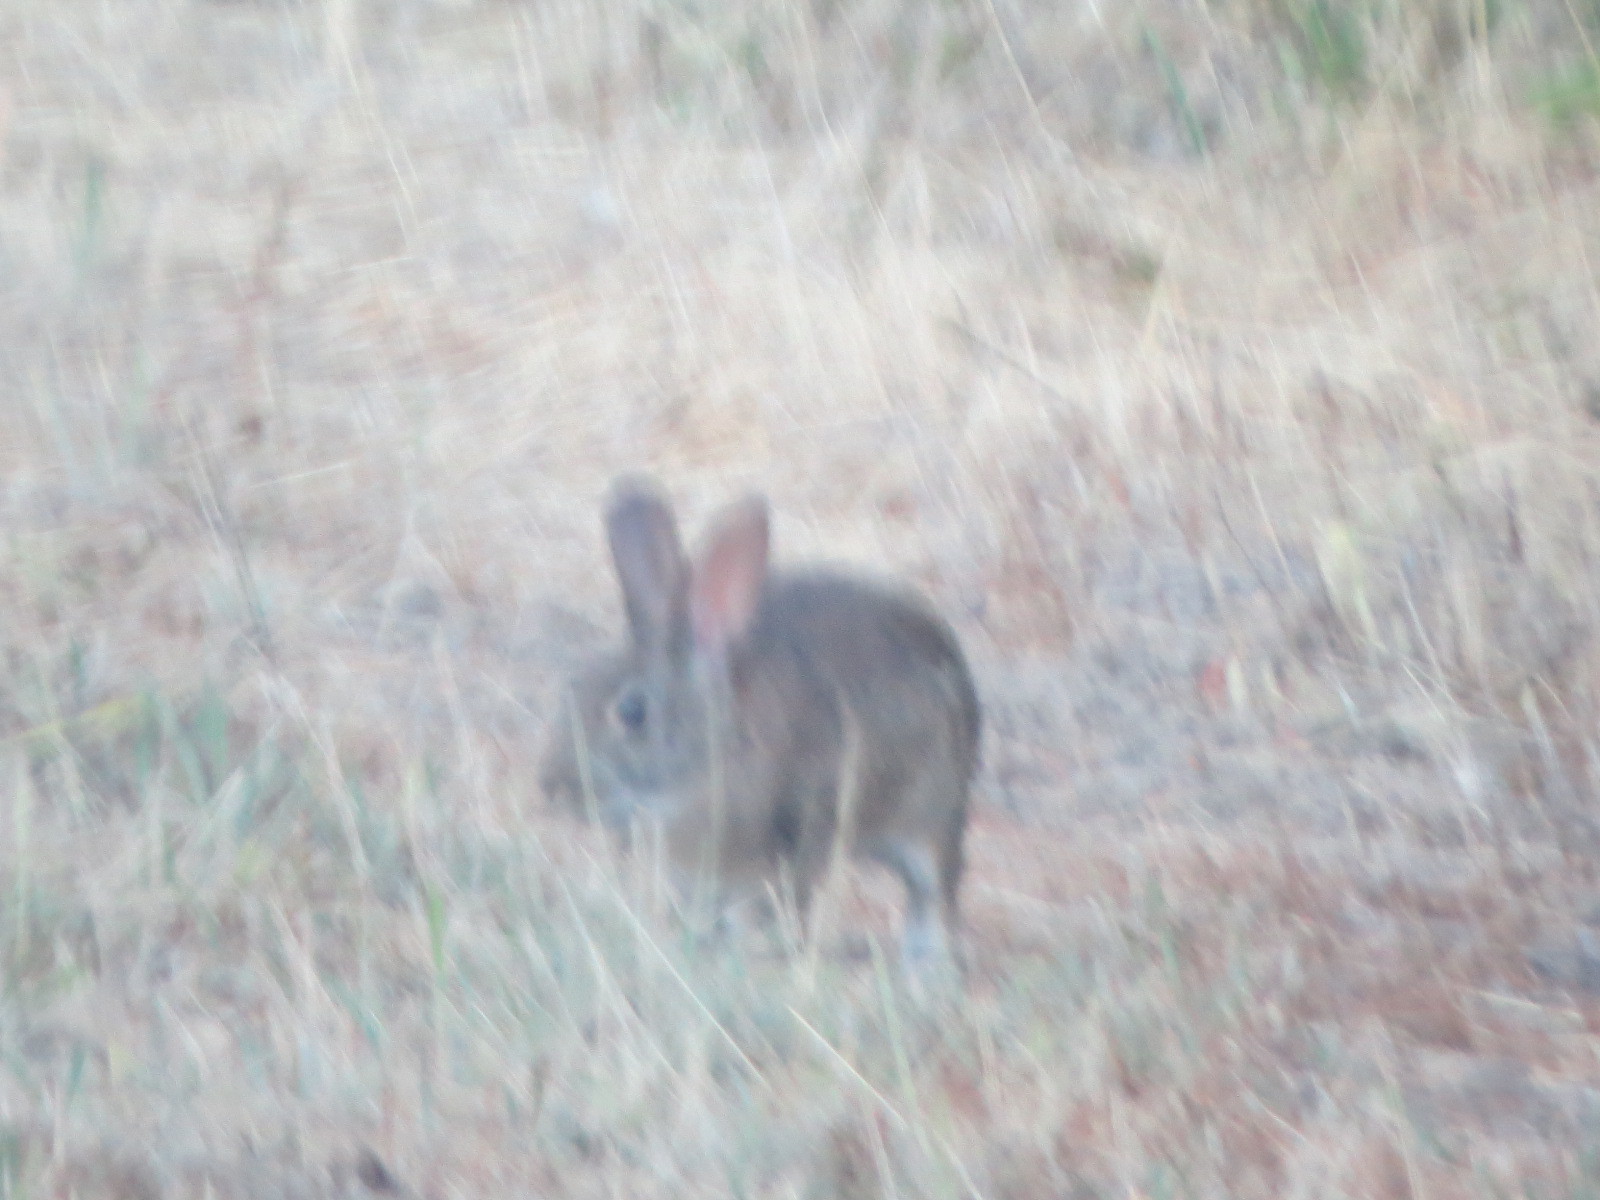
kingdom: Animalia
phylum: Chordata
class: Mammalia
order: Lagomorpha
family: Leporidae
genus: Sylvilagus
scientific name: Sylvilagus bachmani
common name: Brush rabbit
